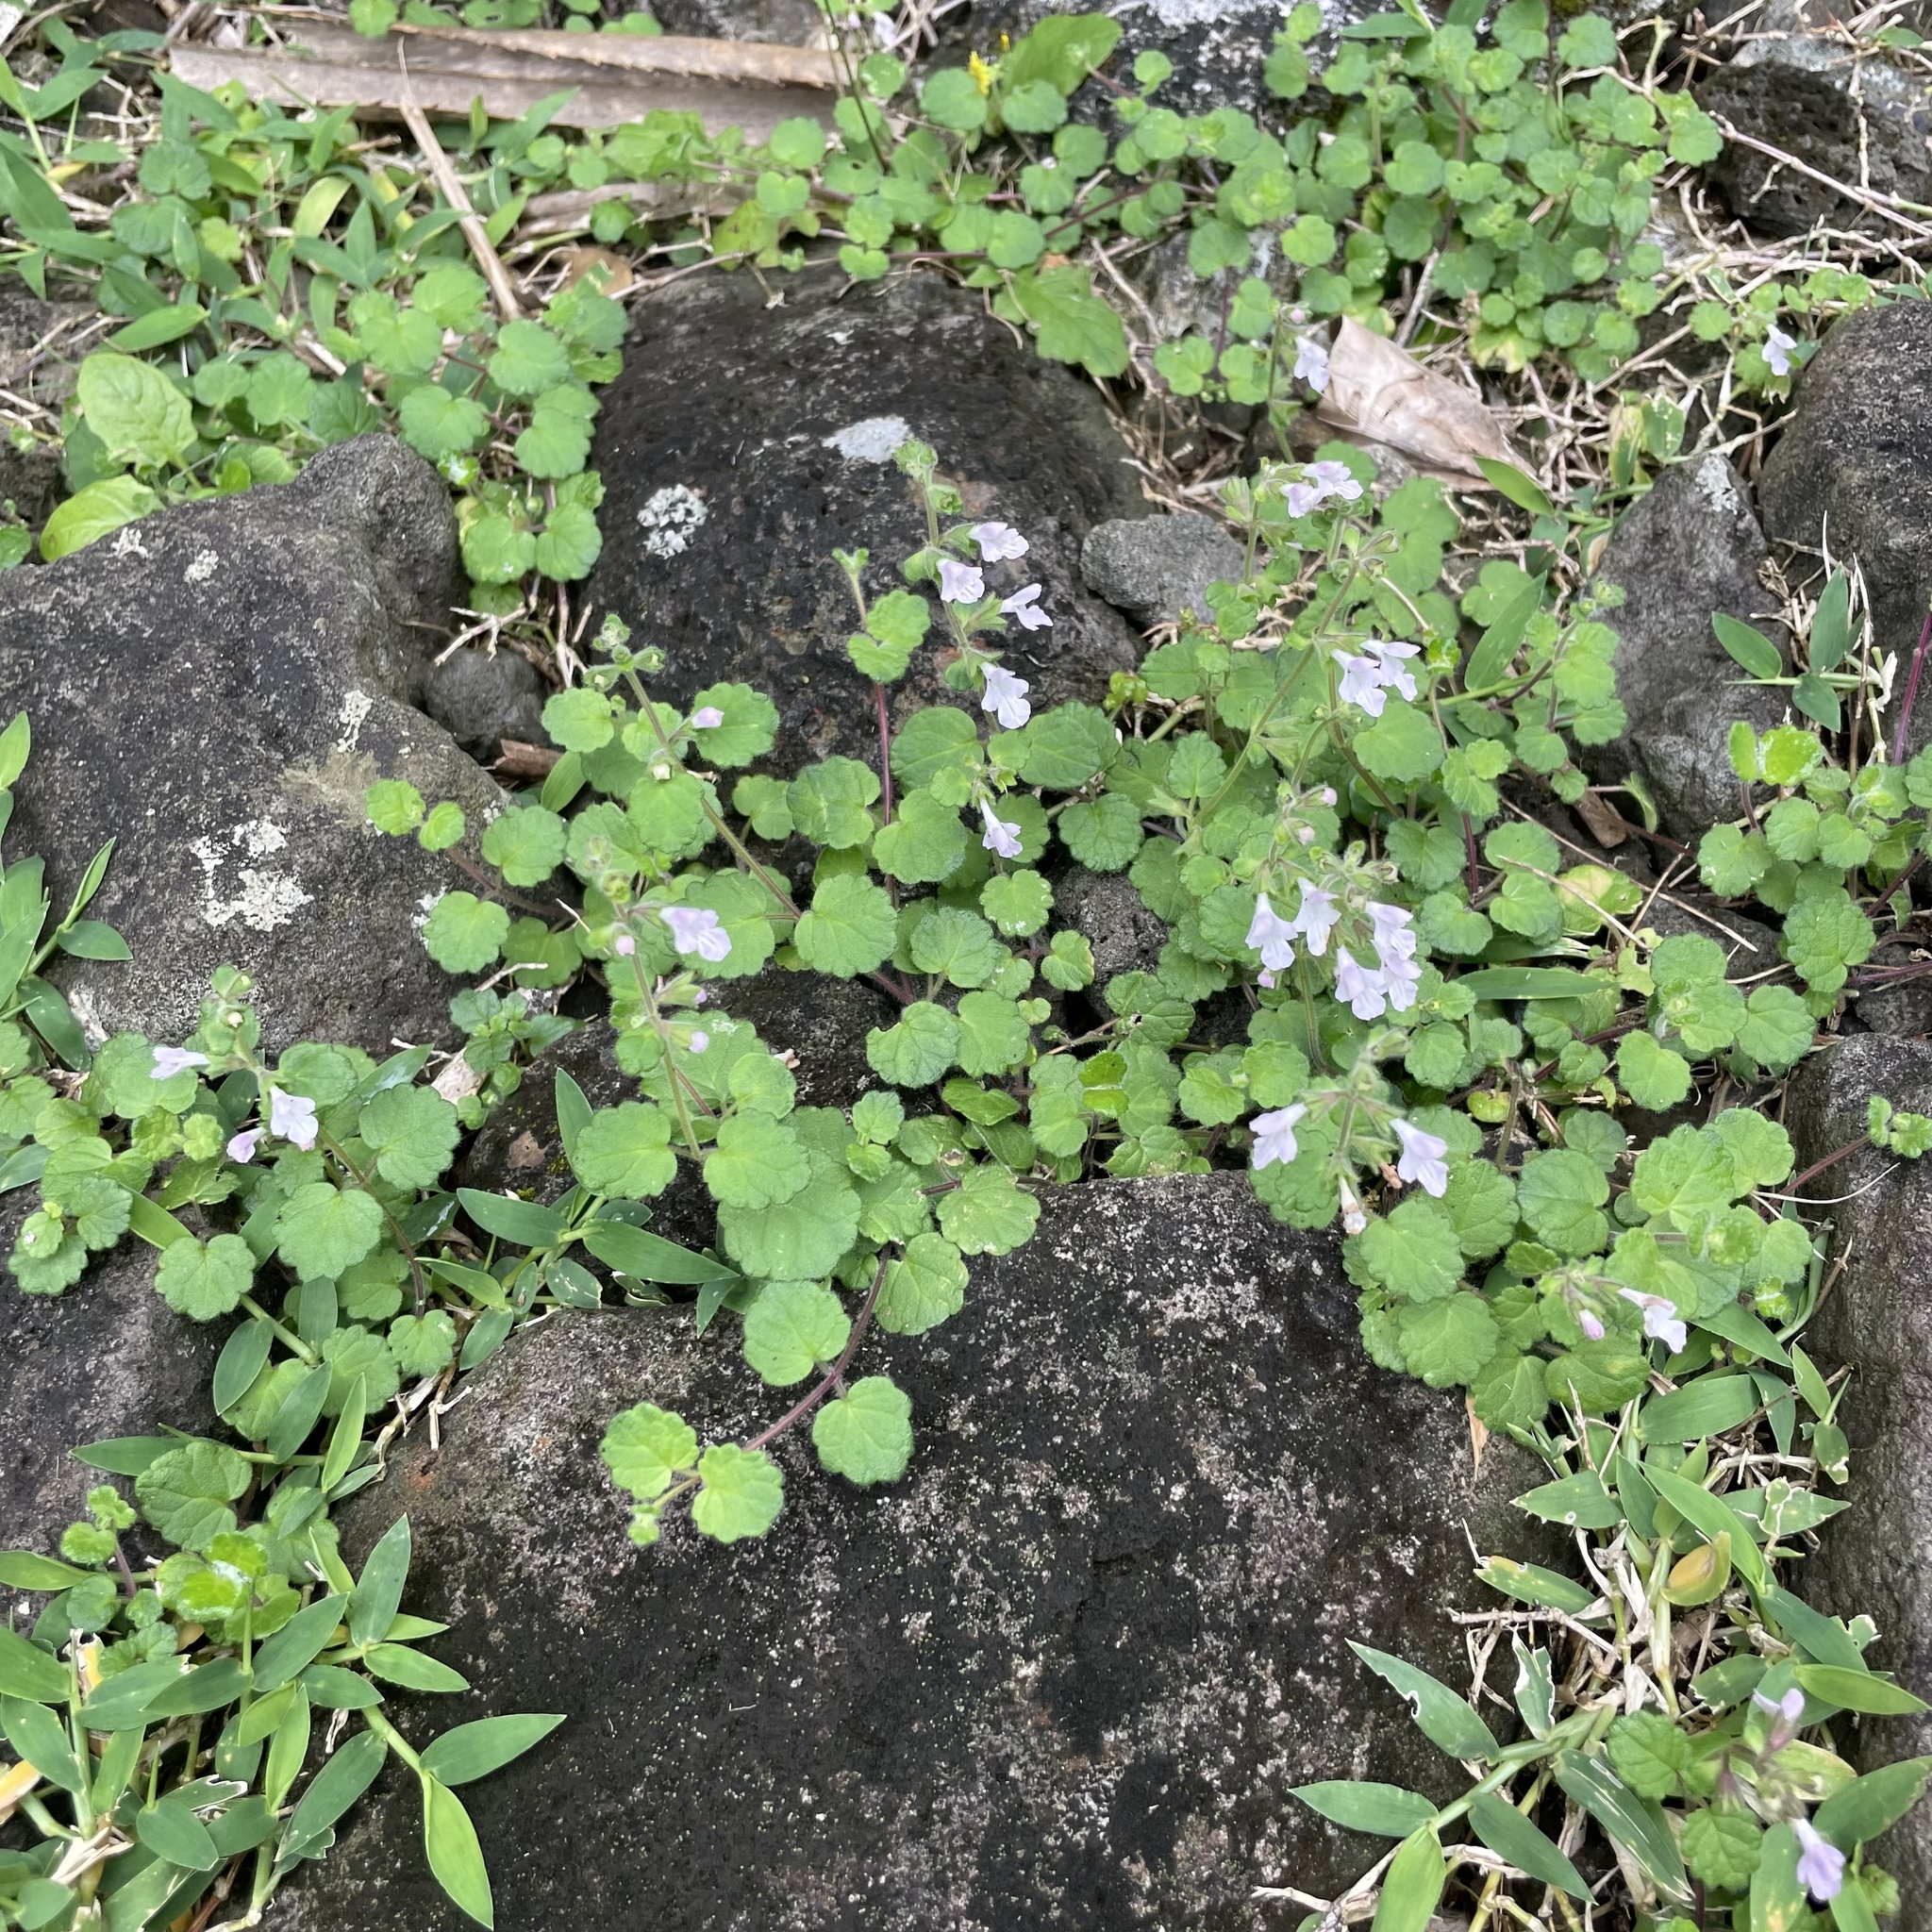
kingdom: Plantae
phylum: Tracheophyta
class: Magnoliopsida
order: Lamiales
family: Lamiaceae
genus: Leucas
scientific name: Leucas chinensis
